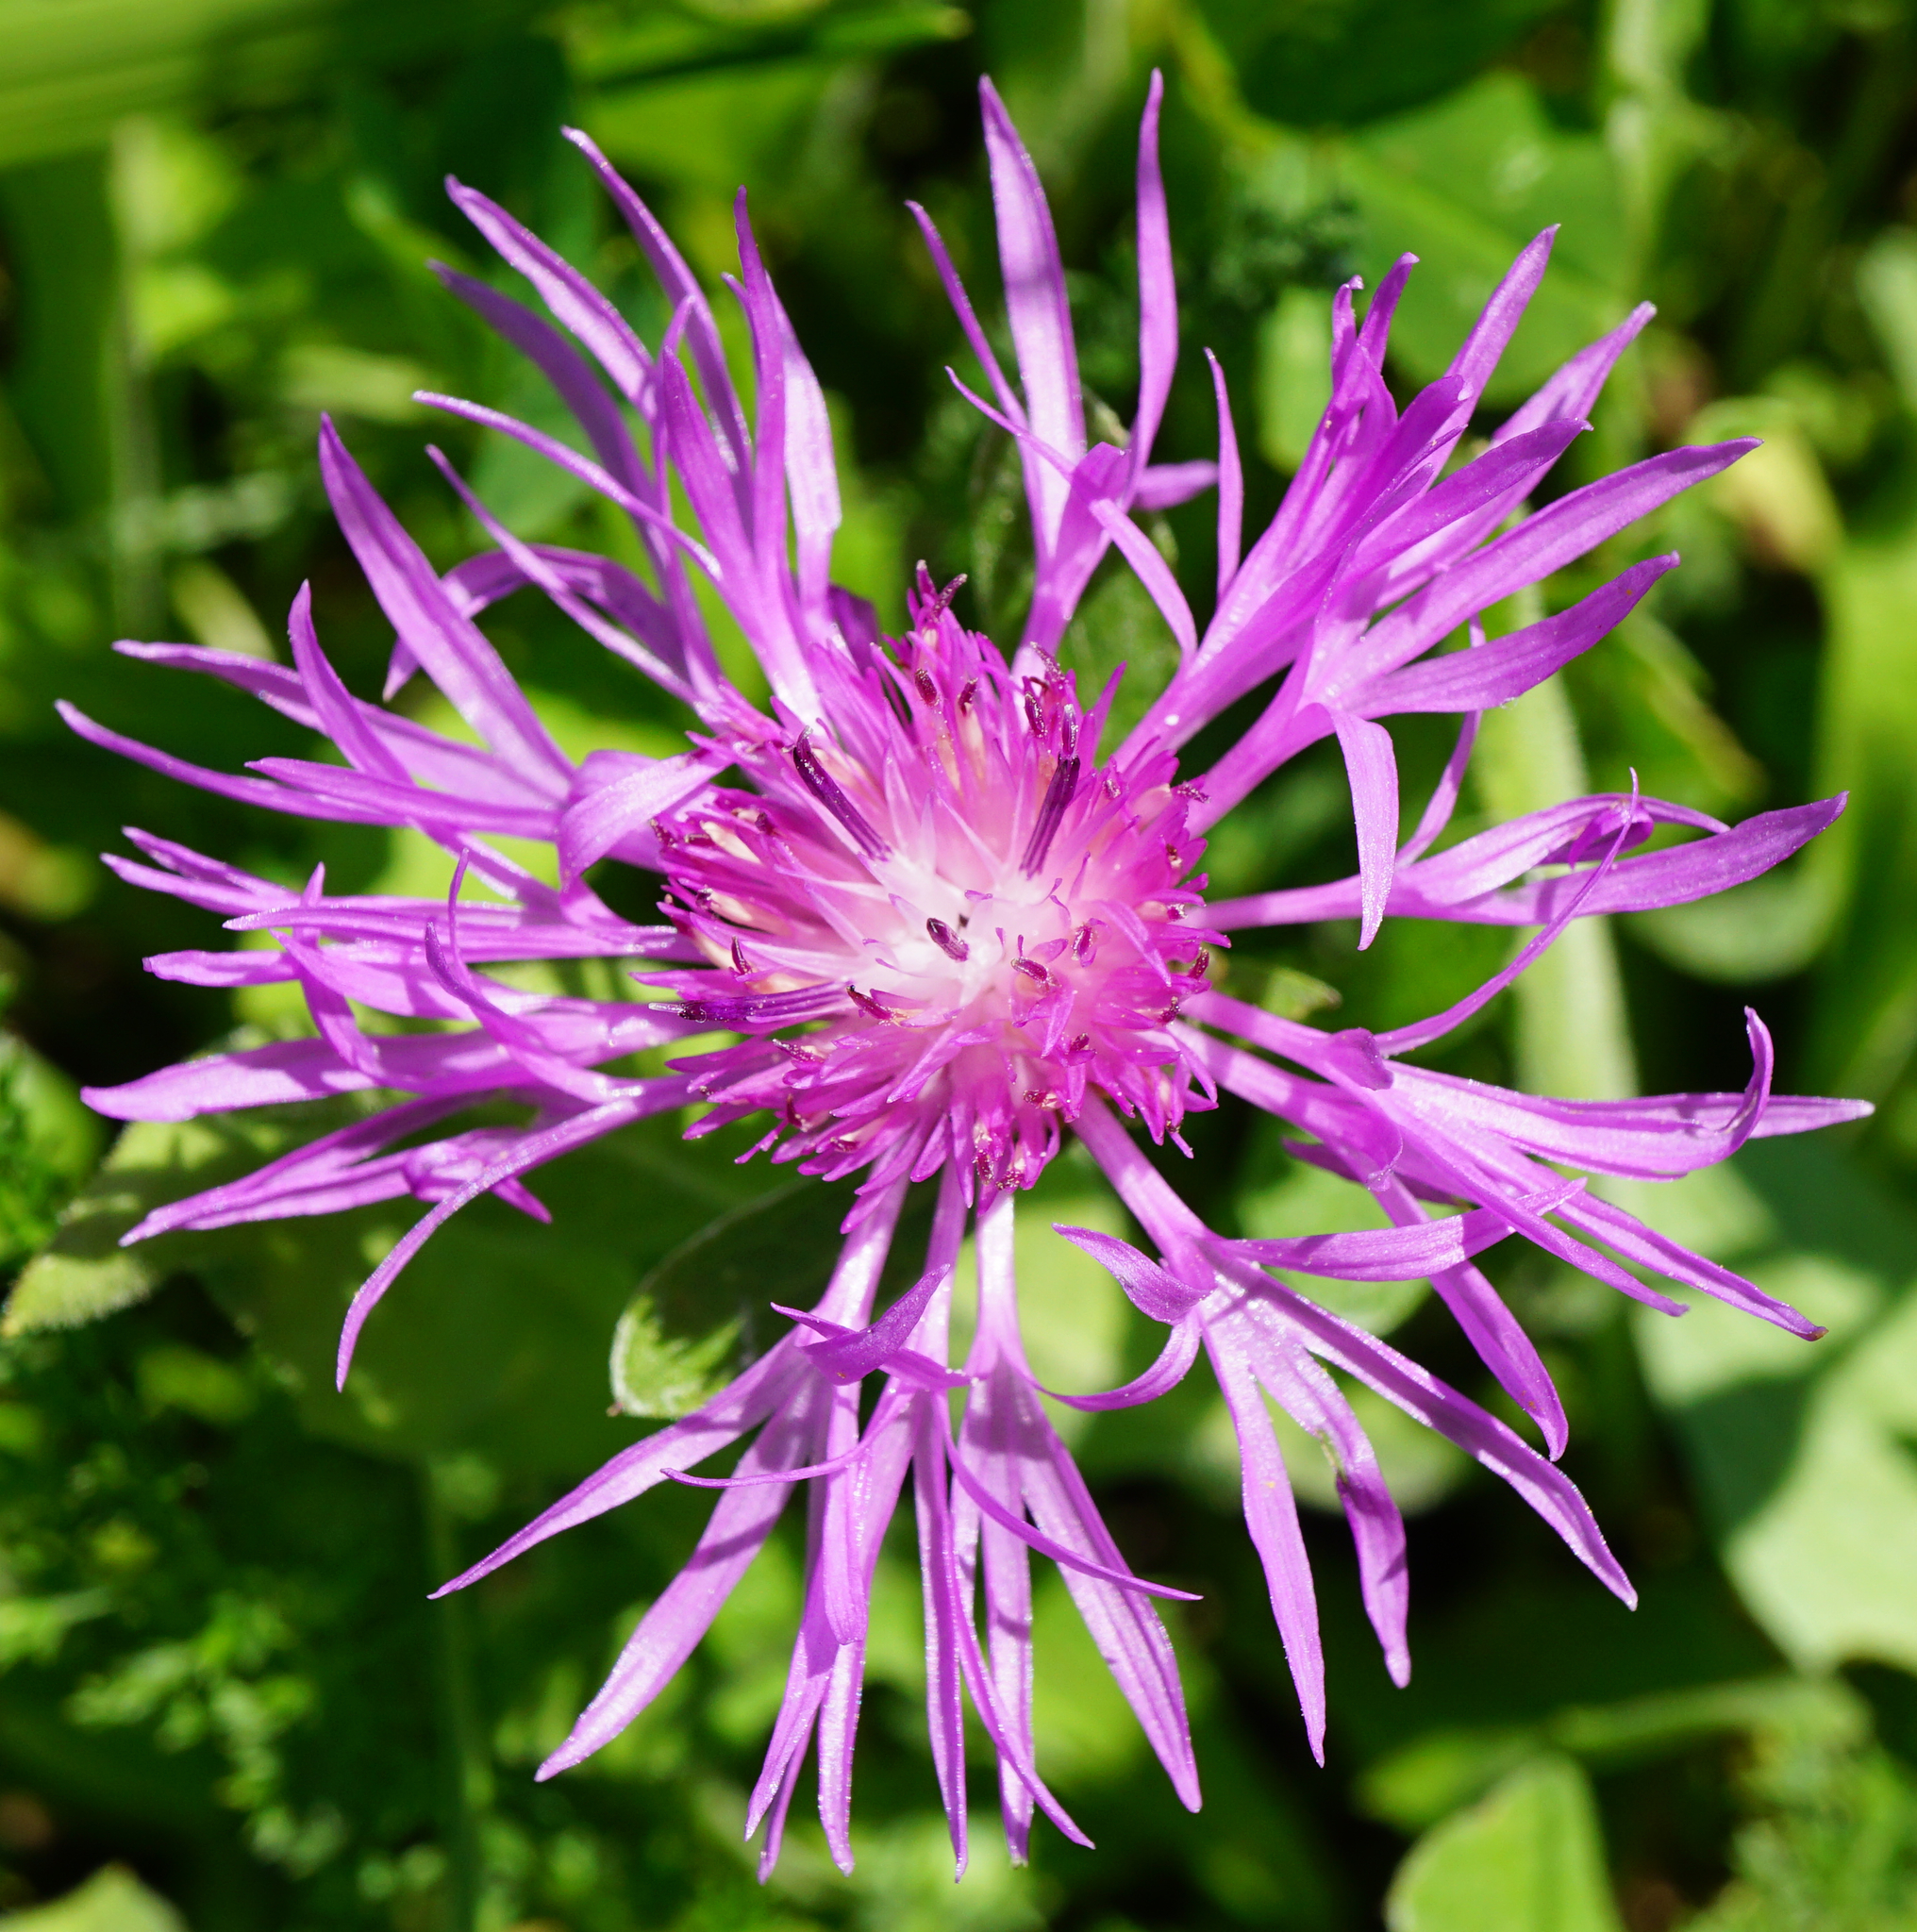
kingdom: Plantae
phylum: Tracheophyta
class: Magnoliopsida
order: Asterales
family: Asteraceae
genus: Centaurea
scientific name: Centaurea jacea
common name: Brown knapweed
